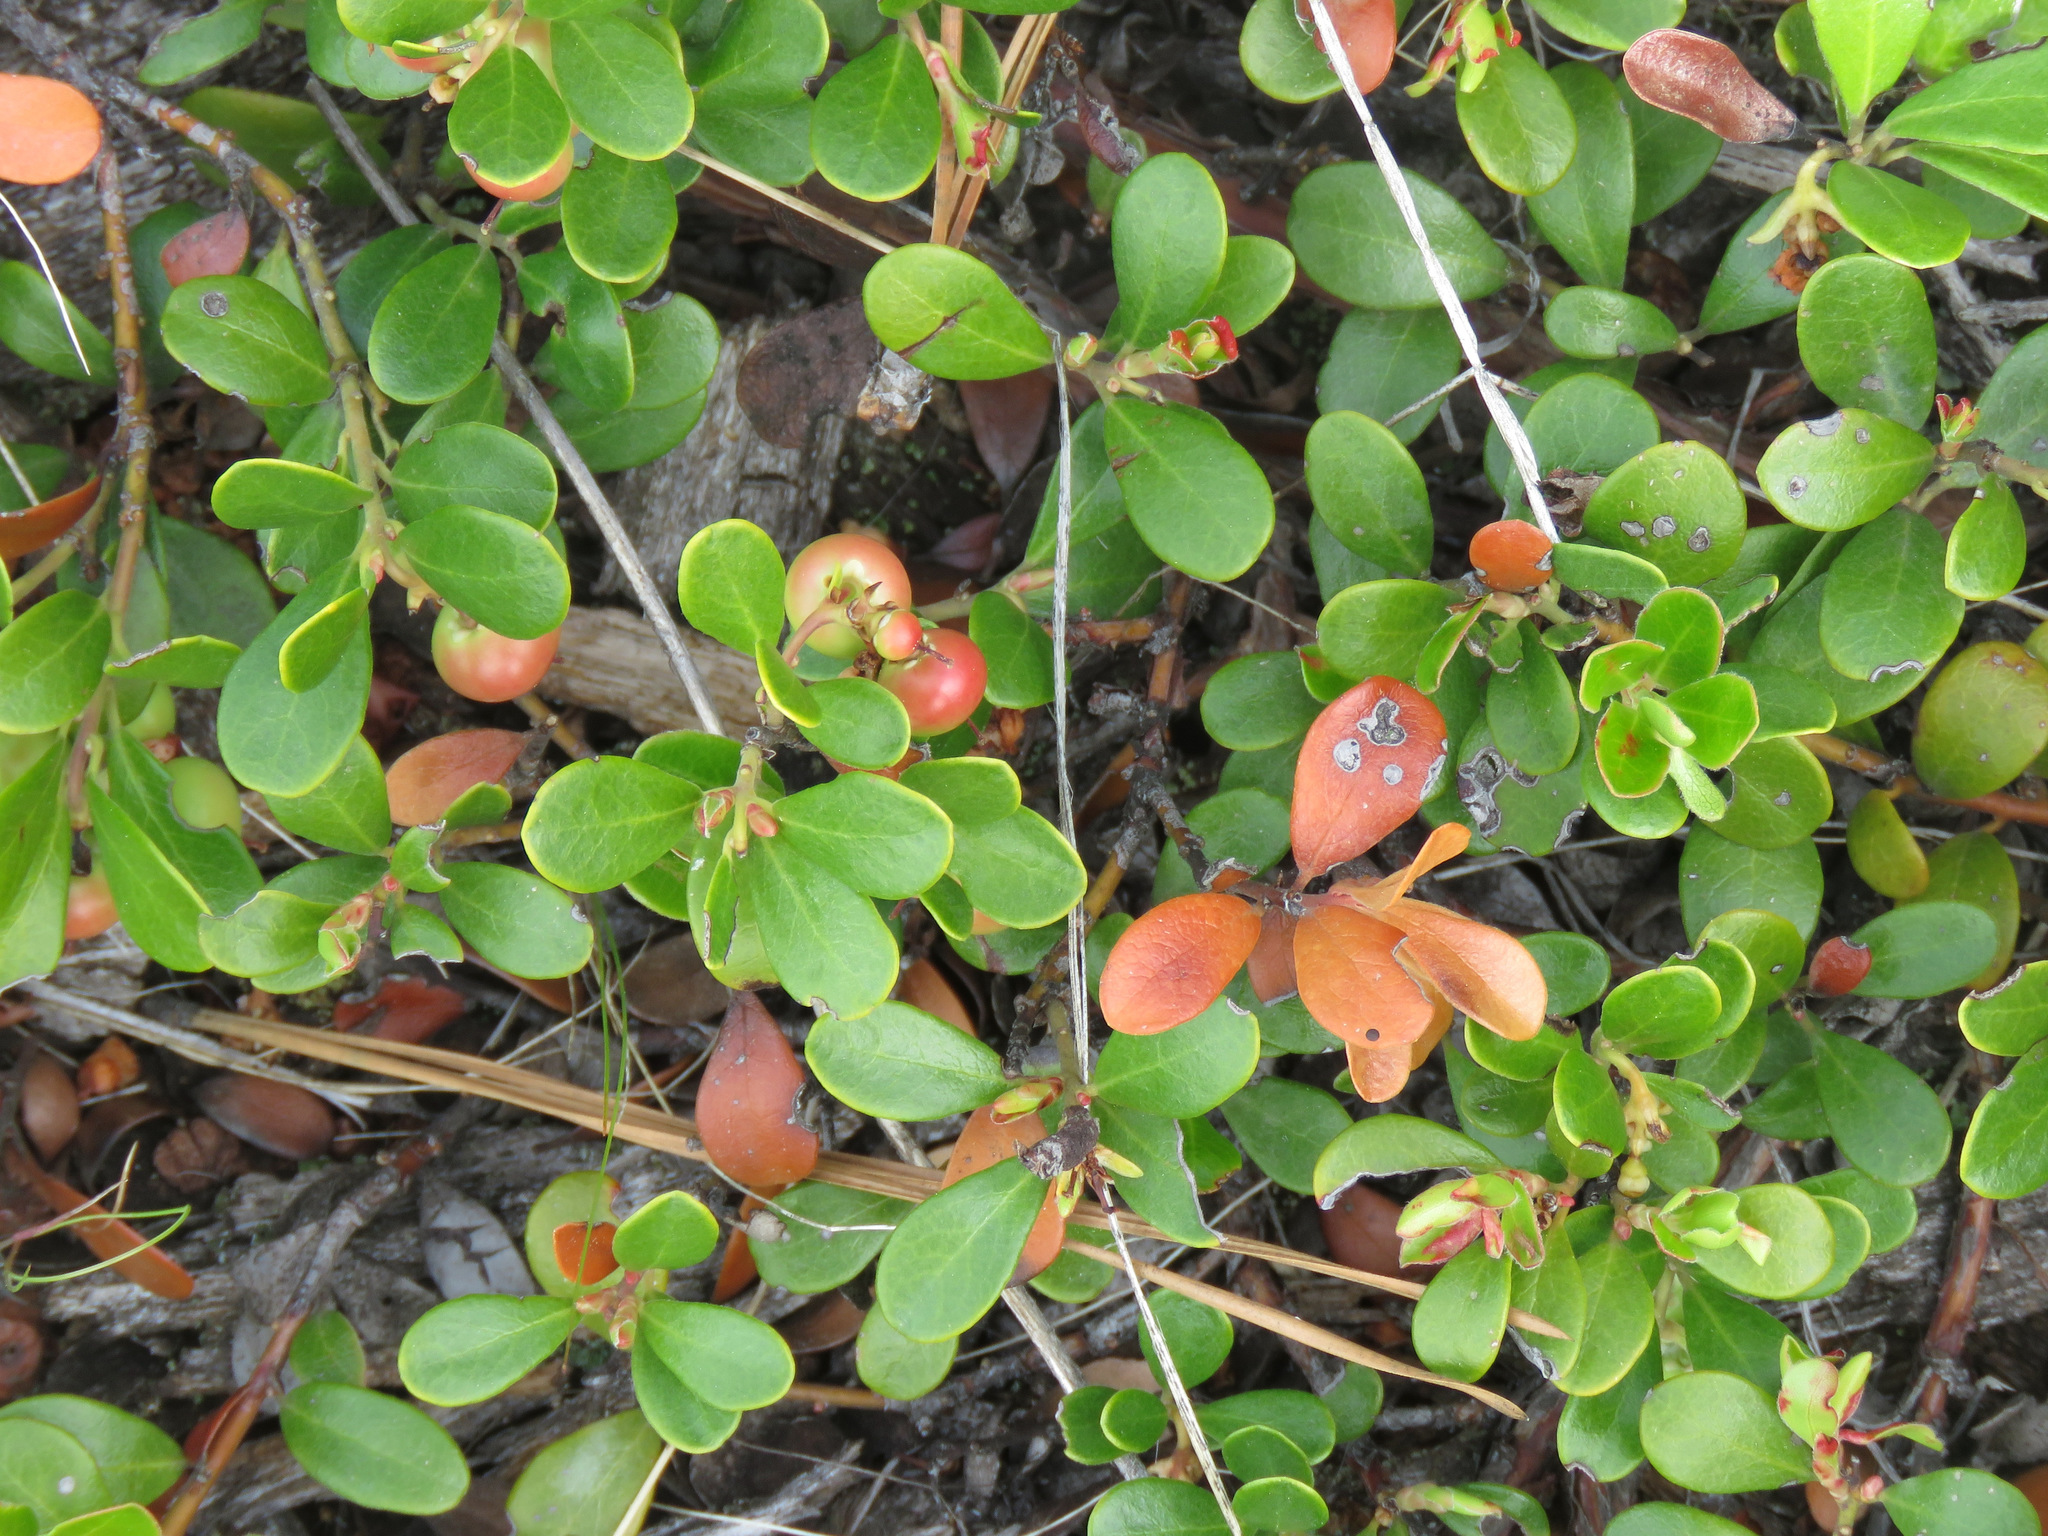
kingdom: Plantae
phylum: Tracheophyta
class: Magnoliopsida
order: Ericales
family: Ericaceae
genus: Arctostaphylos
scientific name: Arctostaphylos uva-ursi
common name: Bearberry
